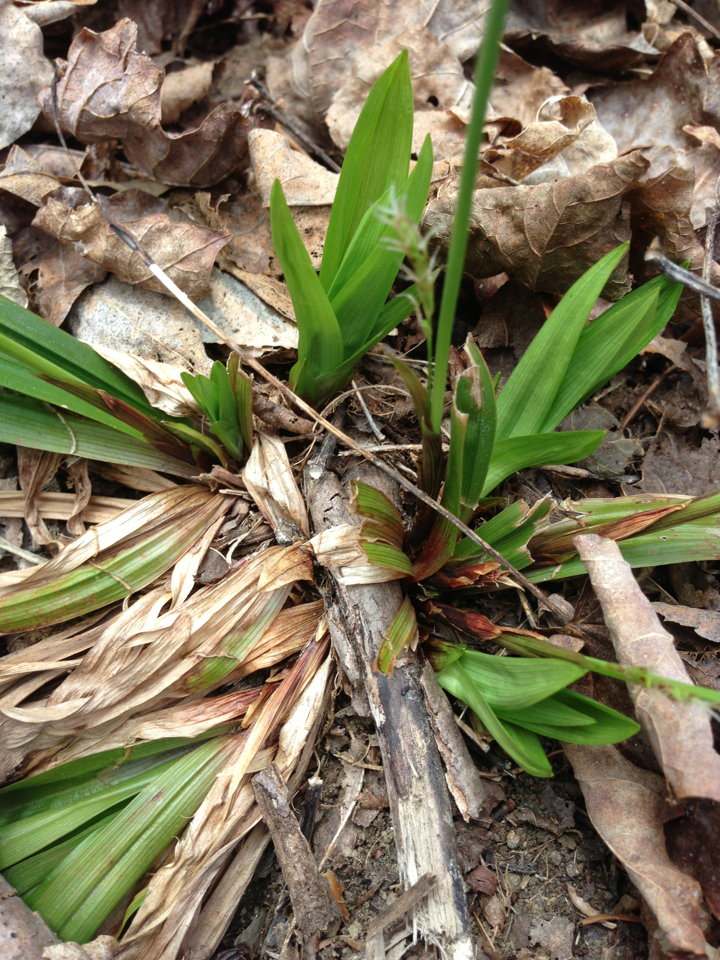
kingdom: Plantae
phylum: Tracheophyta
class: Liliopsida
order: Poales
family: Cyperaceae
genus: Carex
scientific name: Carex plantaginea
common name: Plantain-leaved sedge
